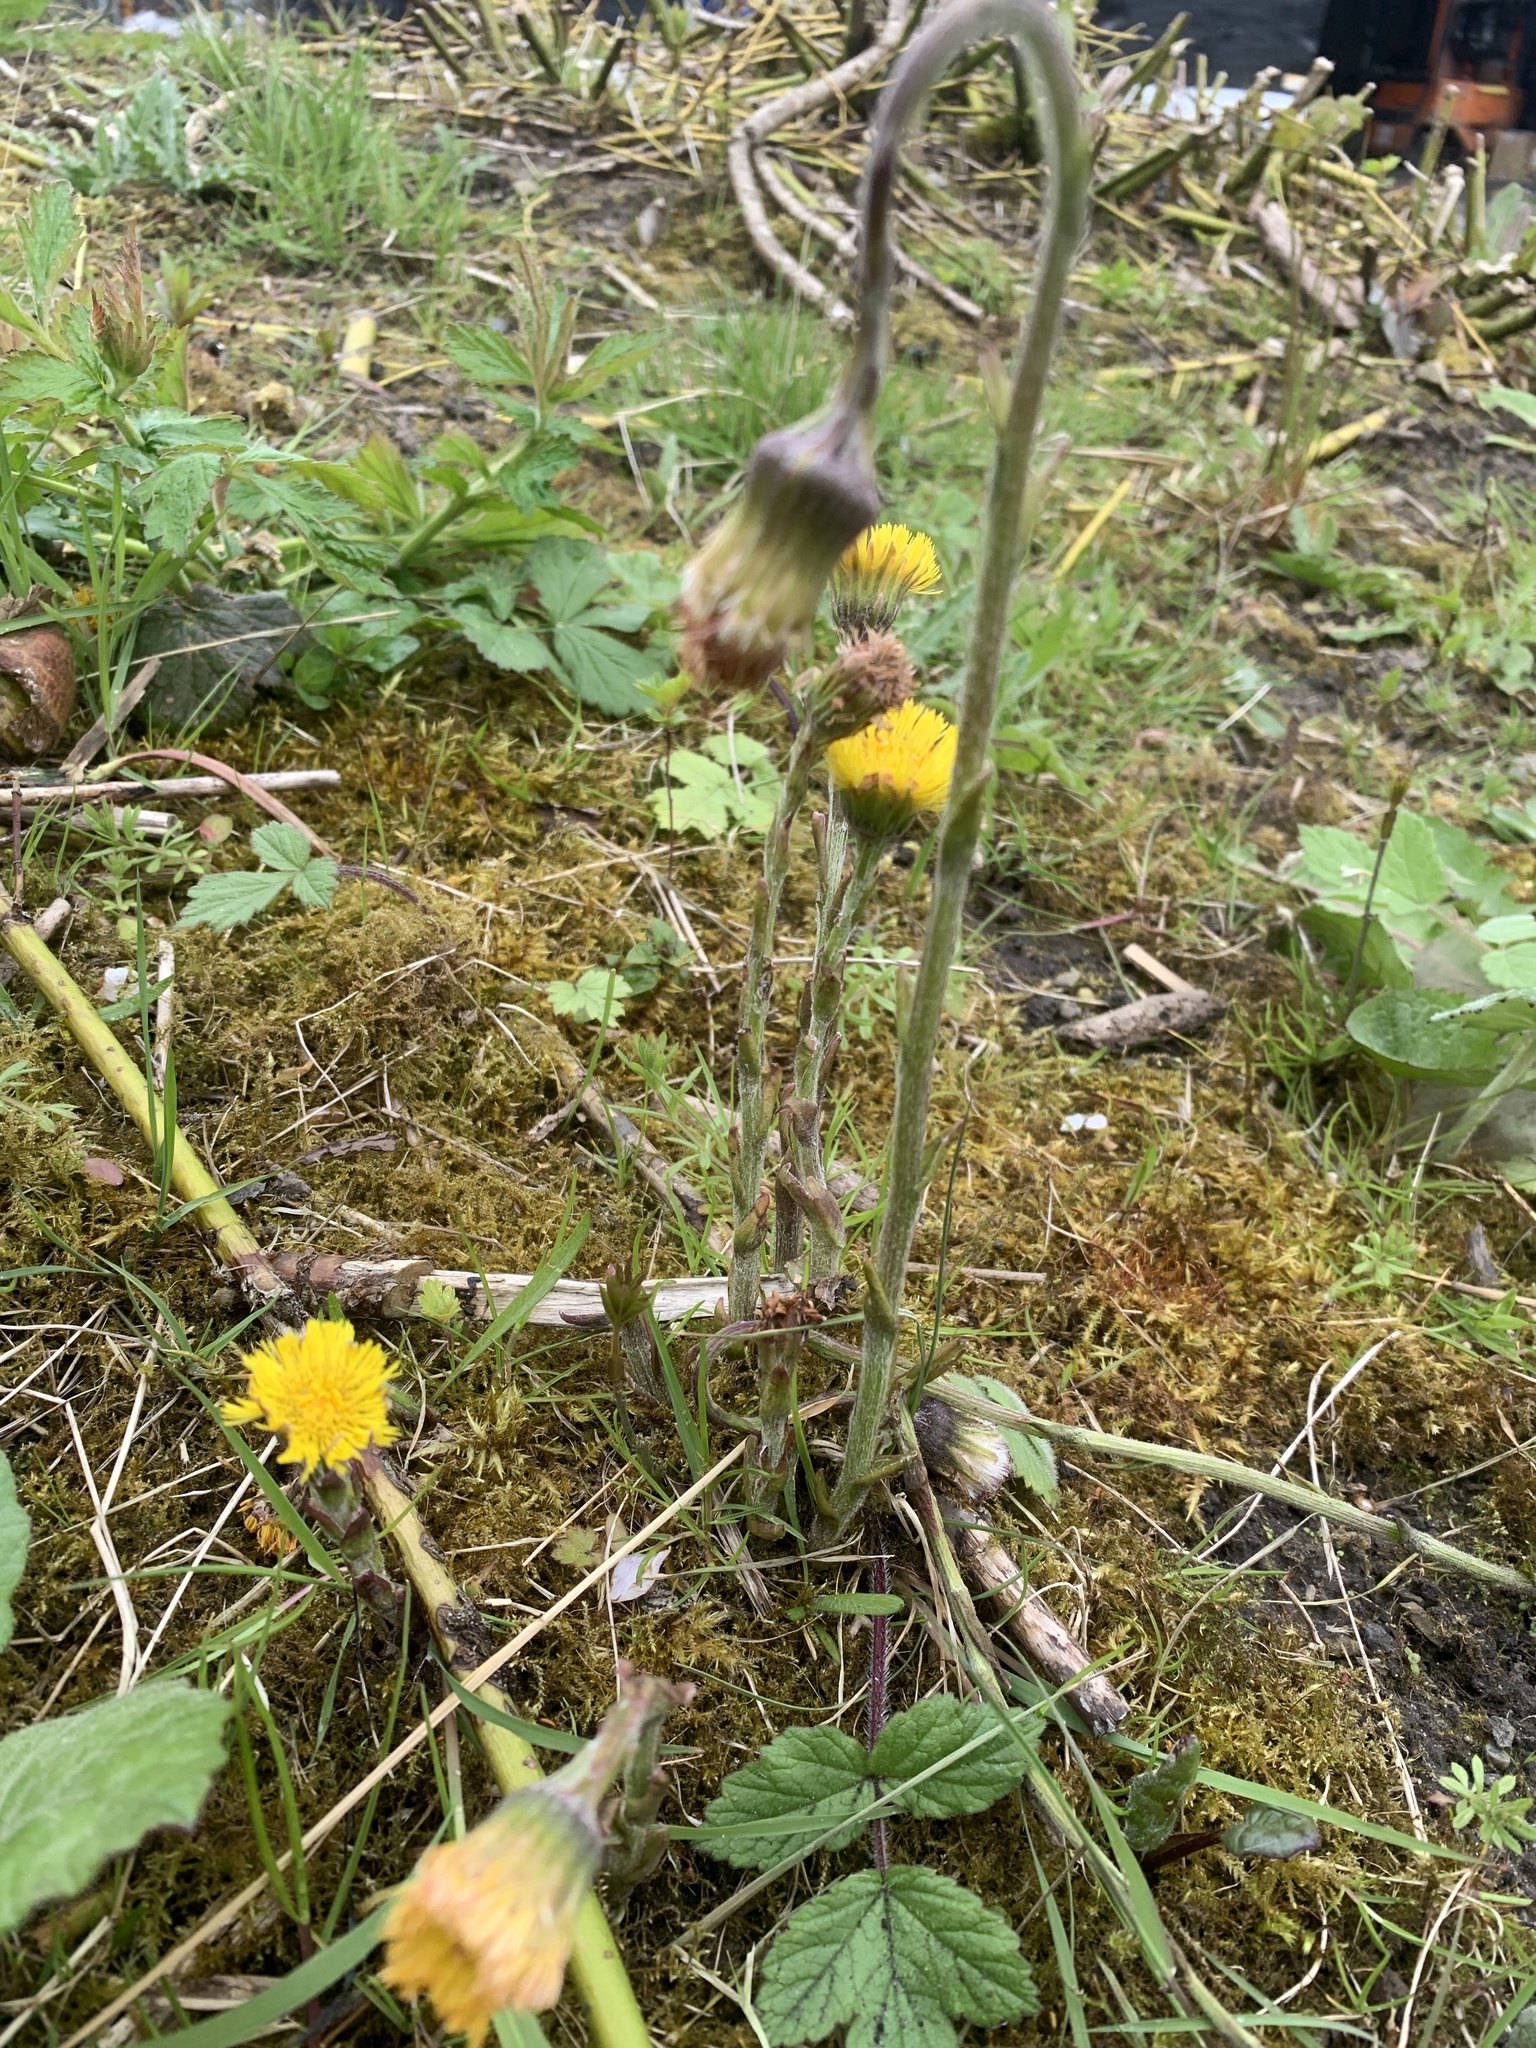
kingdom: Plantae
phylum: Tracheophyta
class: Magnoliopsida
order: Asterales
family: Asteraceae
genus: Tussilago
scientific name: Tussilago farfara
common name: Coltsfoot
